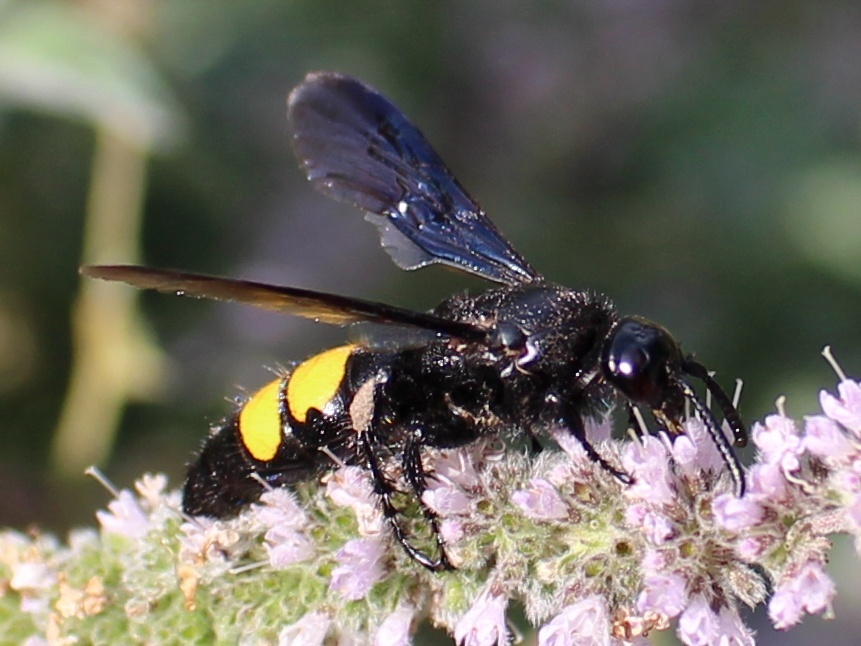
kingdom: Animalia
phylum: Arthropoda
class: Insecta
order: Hymenoptera
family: Scoliidae
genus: Scolia
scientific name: Scolia hirta
